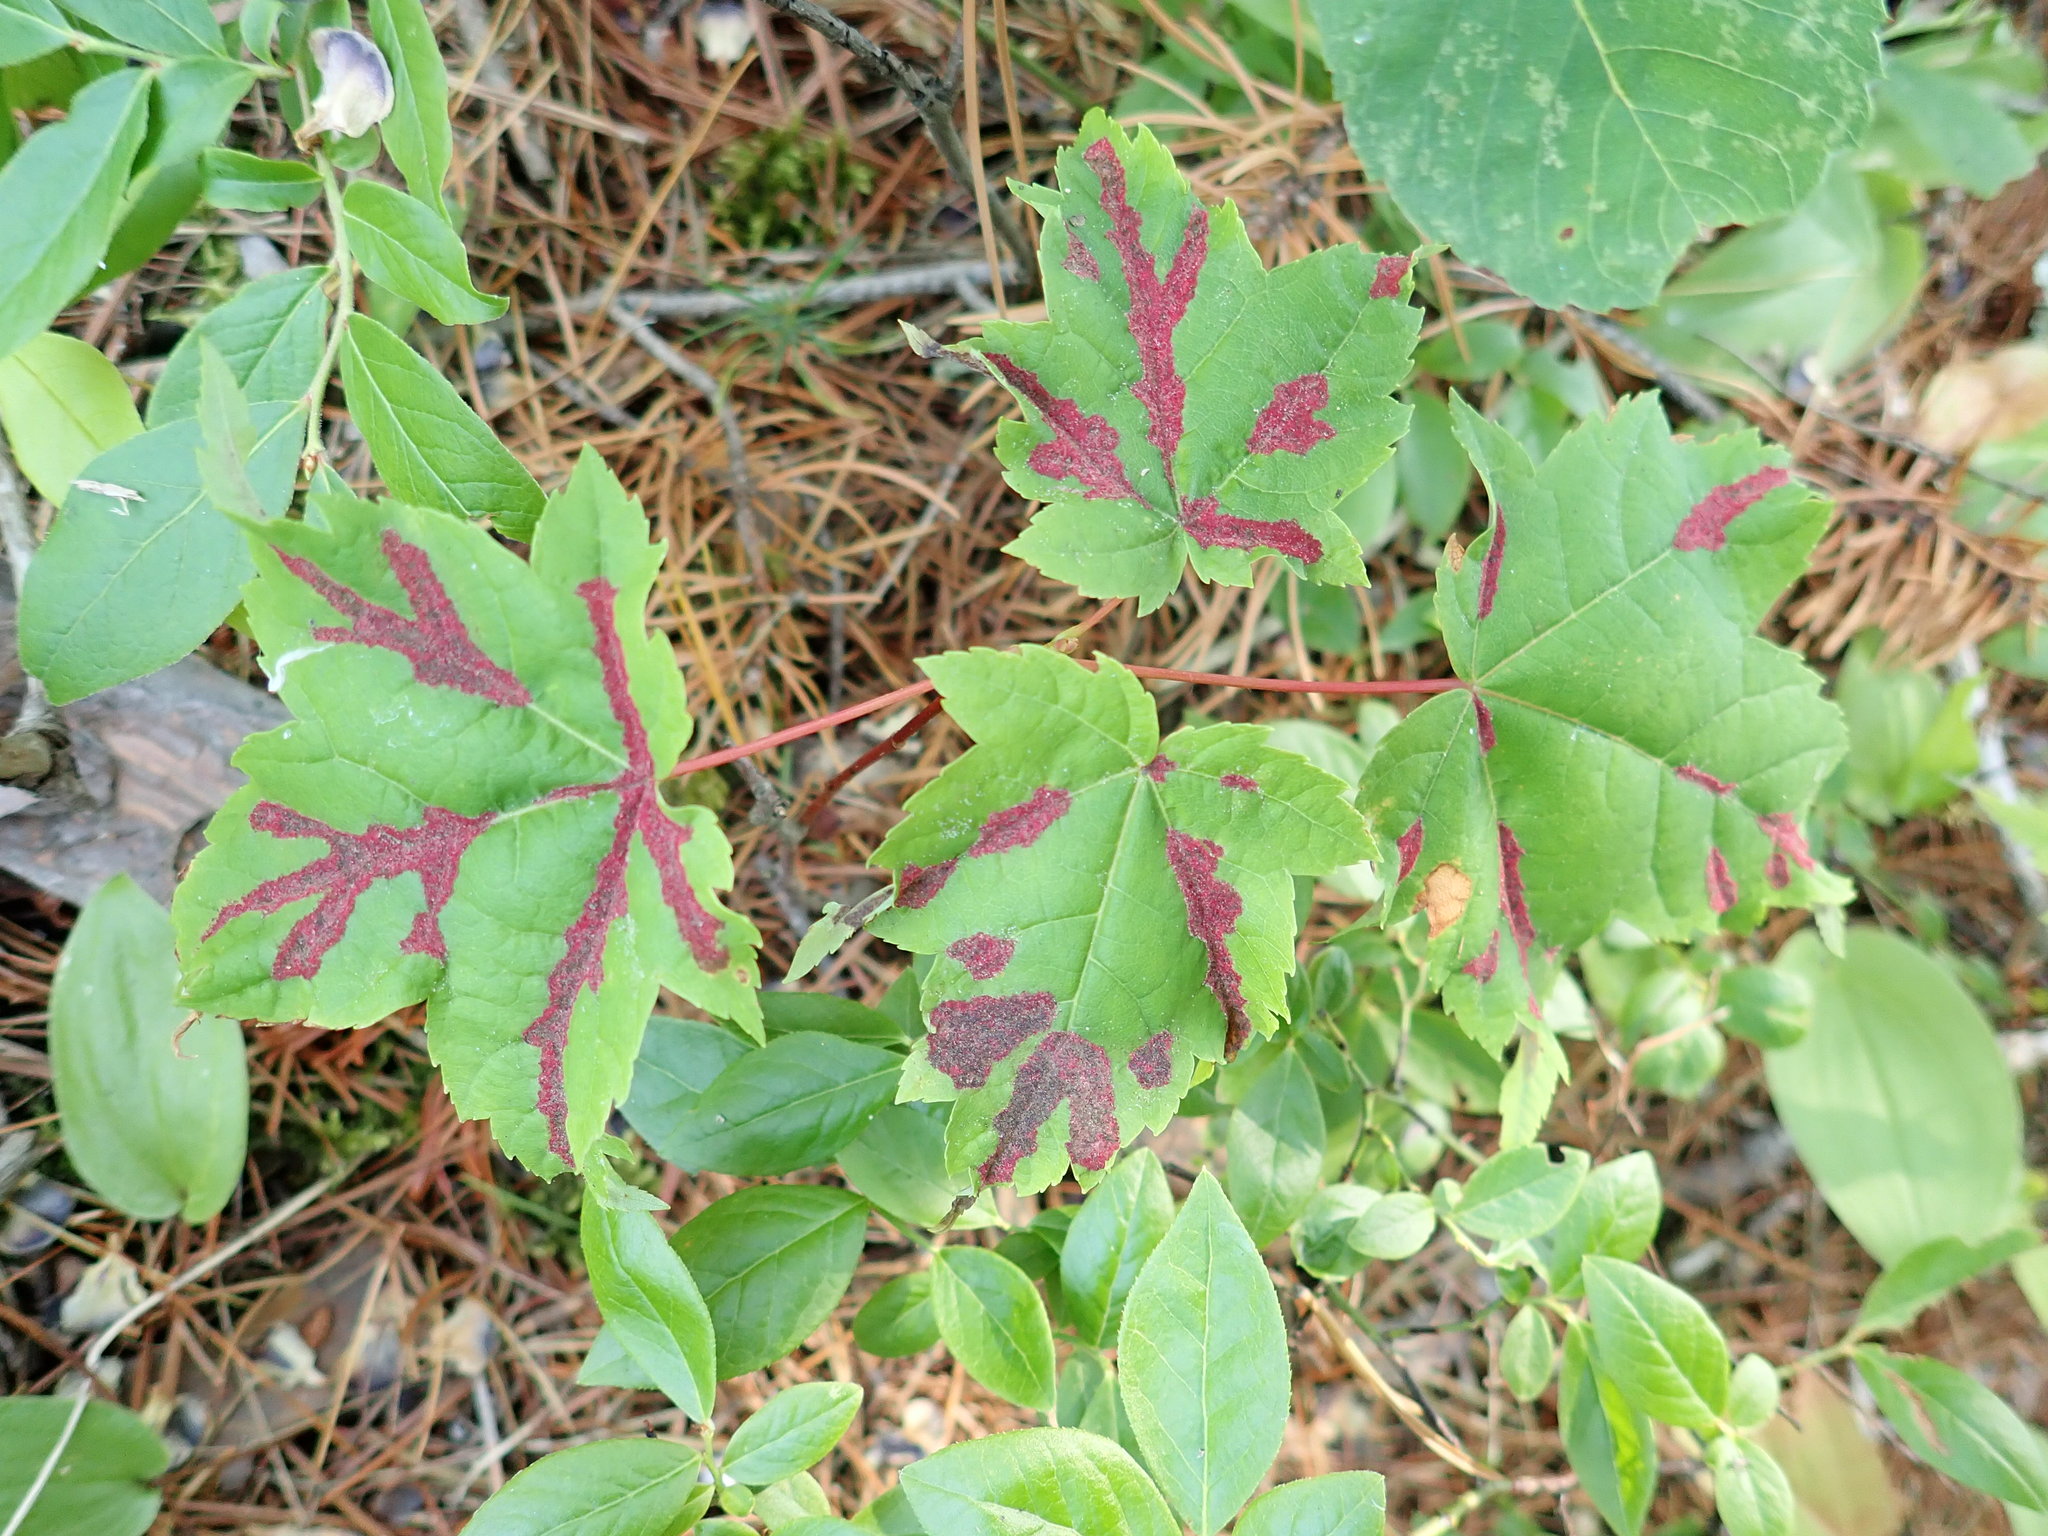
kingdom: Plantae
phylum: Tracheophyta
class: Magnoliopsida
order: Sapindales
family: Sapindaceae
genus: Acer
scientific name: Acer rubrum
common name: Red maple
